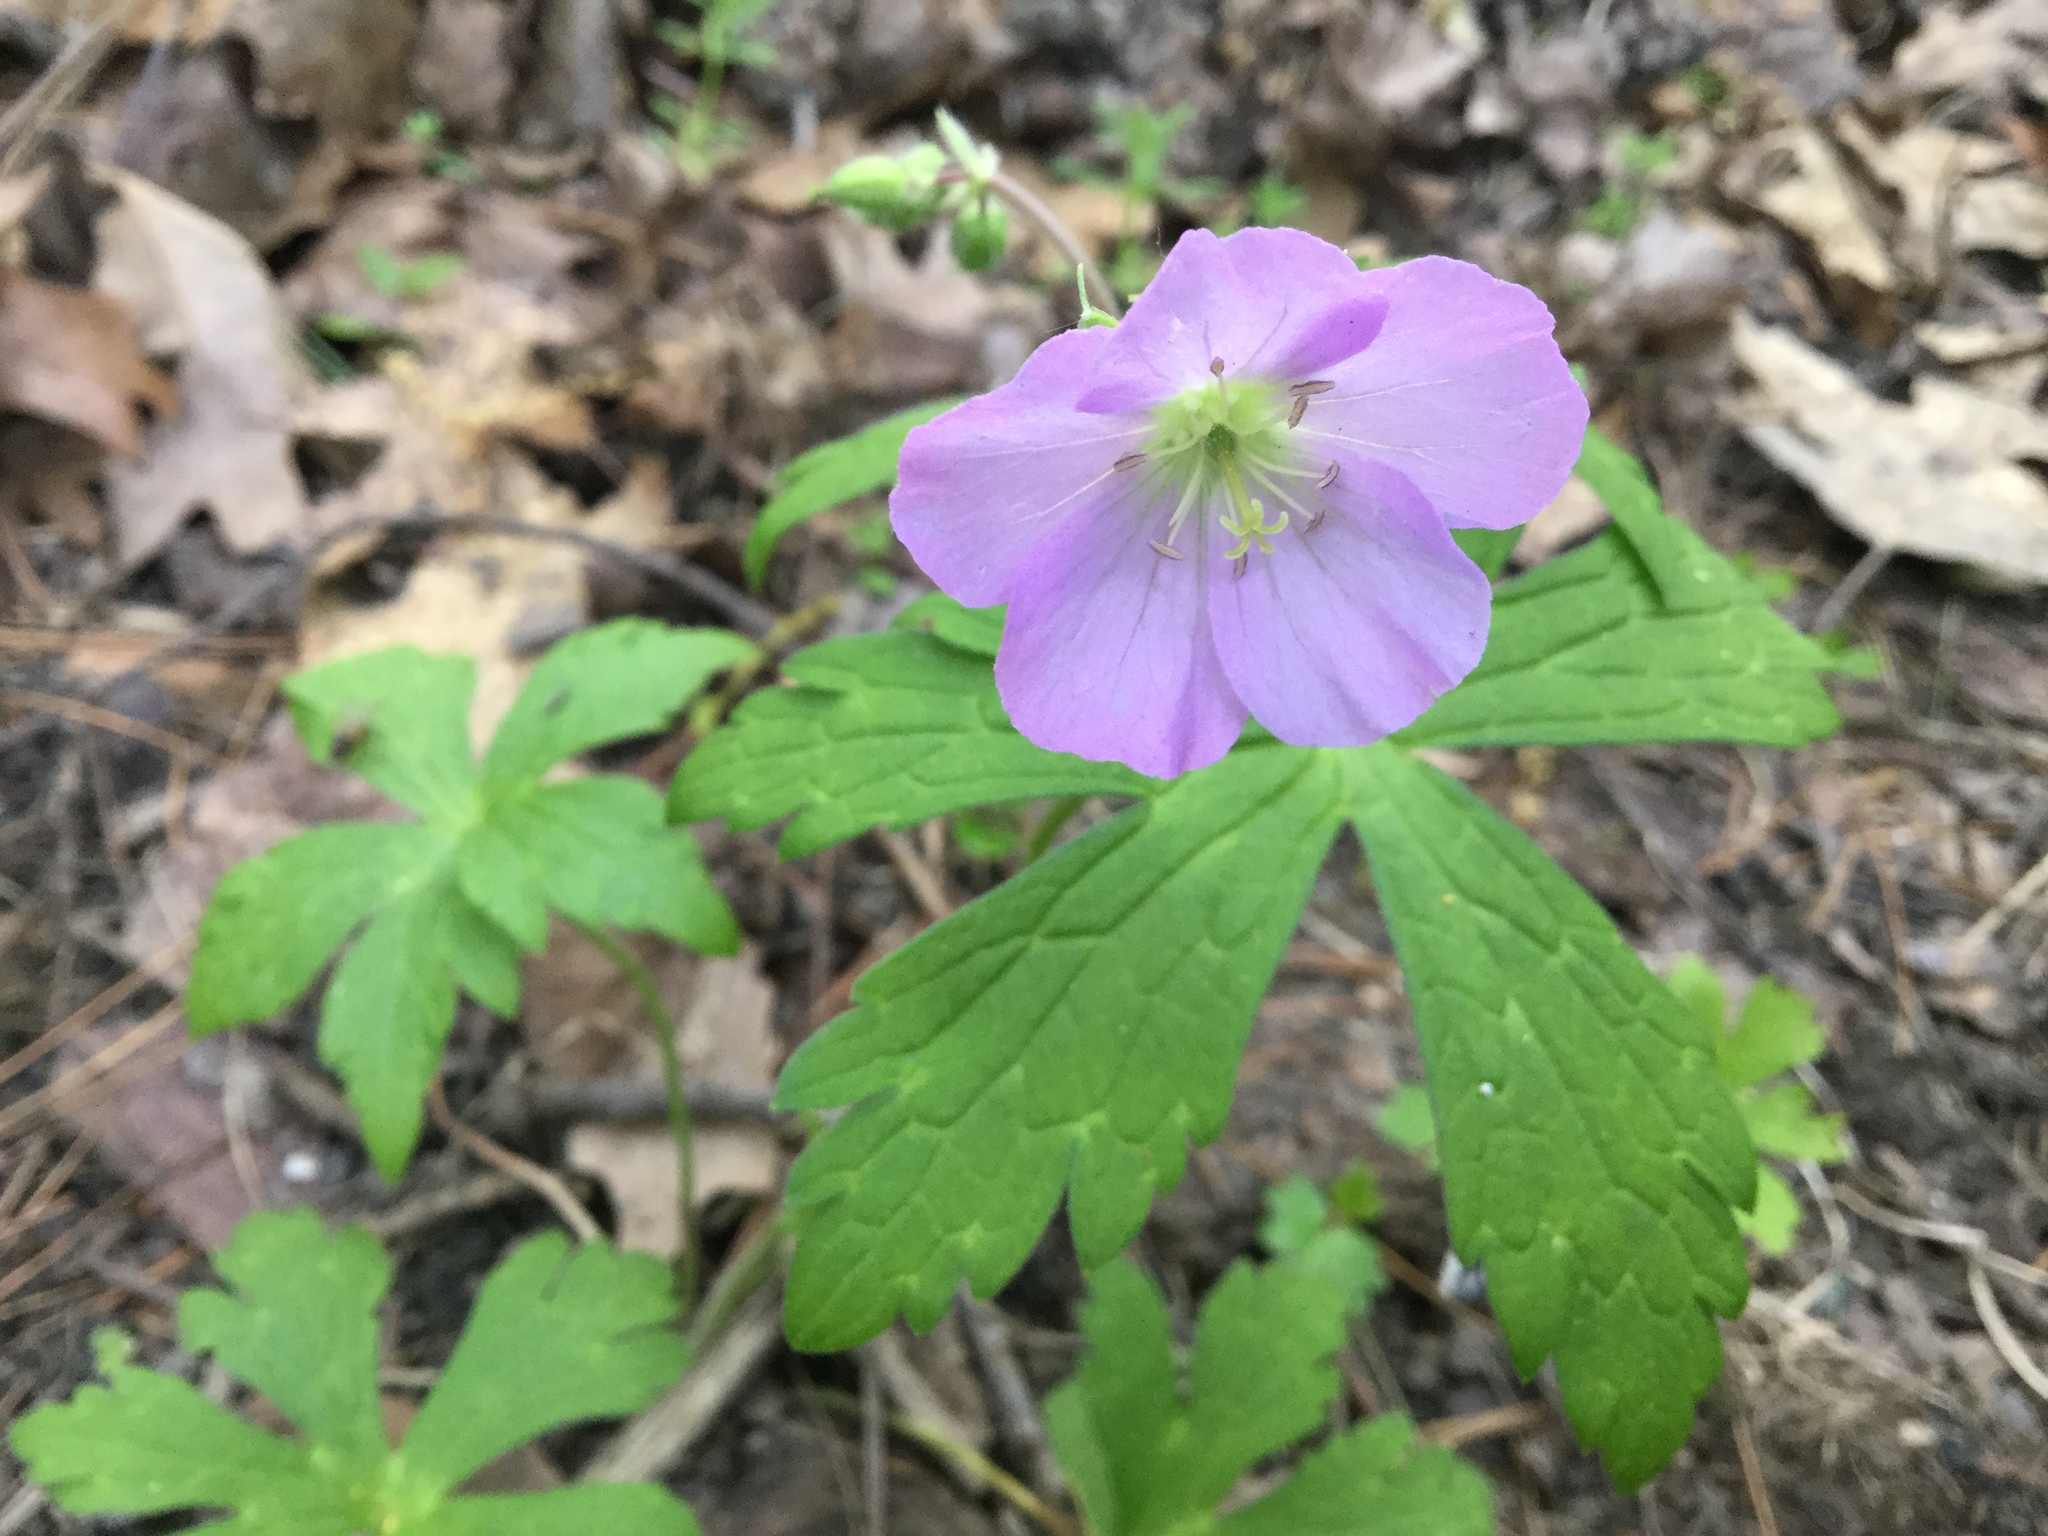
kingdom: Plantae
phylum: Tracheophyta
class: Magnoliopsida
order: Geraniales
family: Geraniaceae
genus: Geranium
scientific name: Geranium maculatum
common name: Spotted geranium
